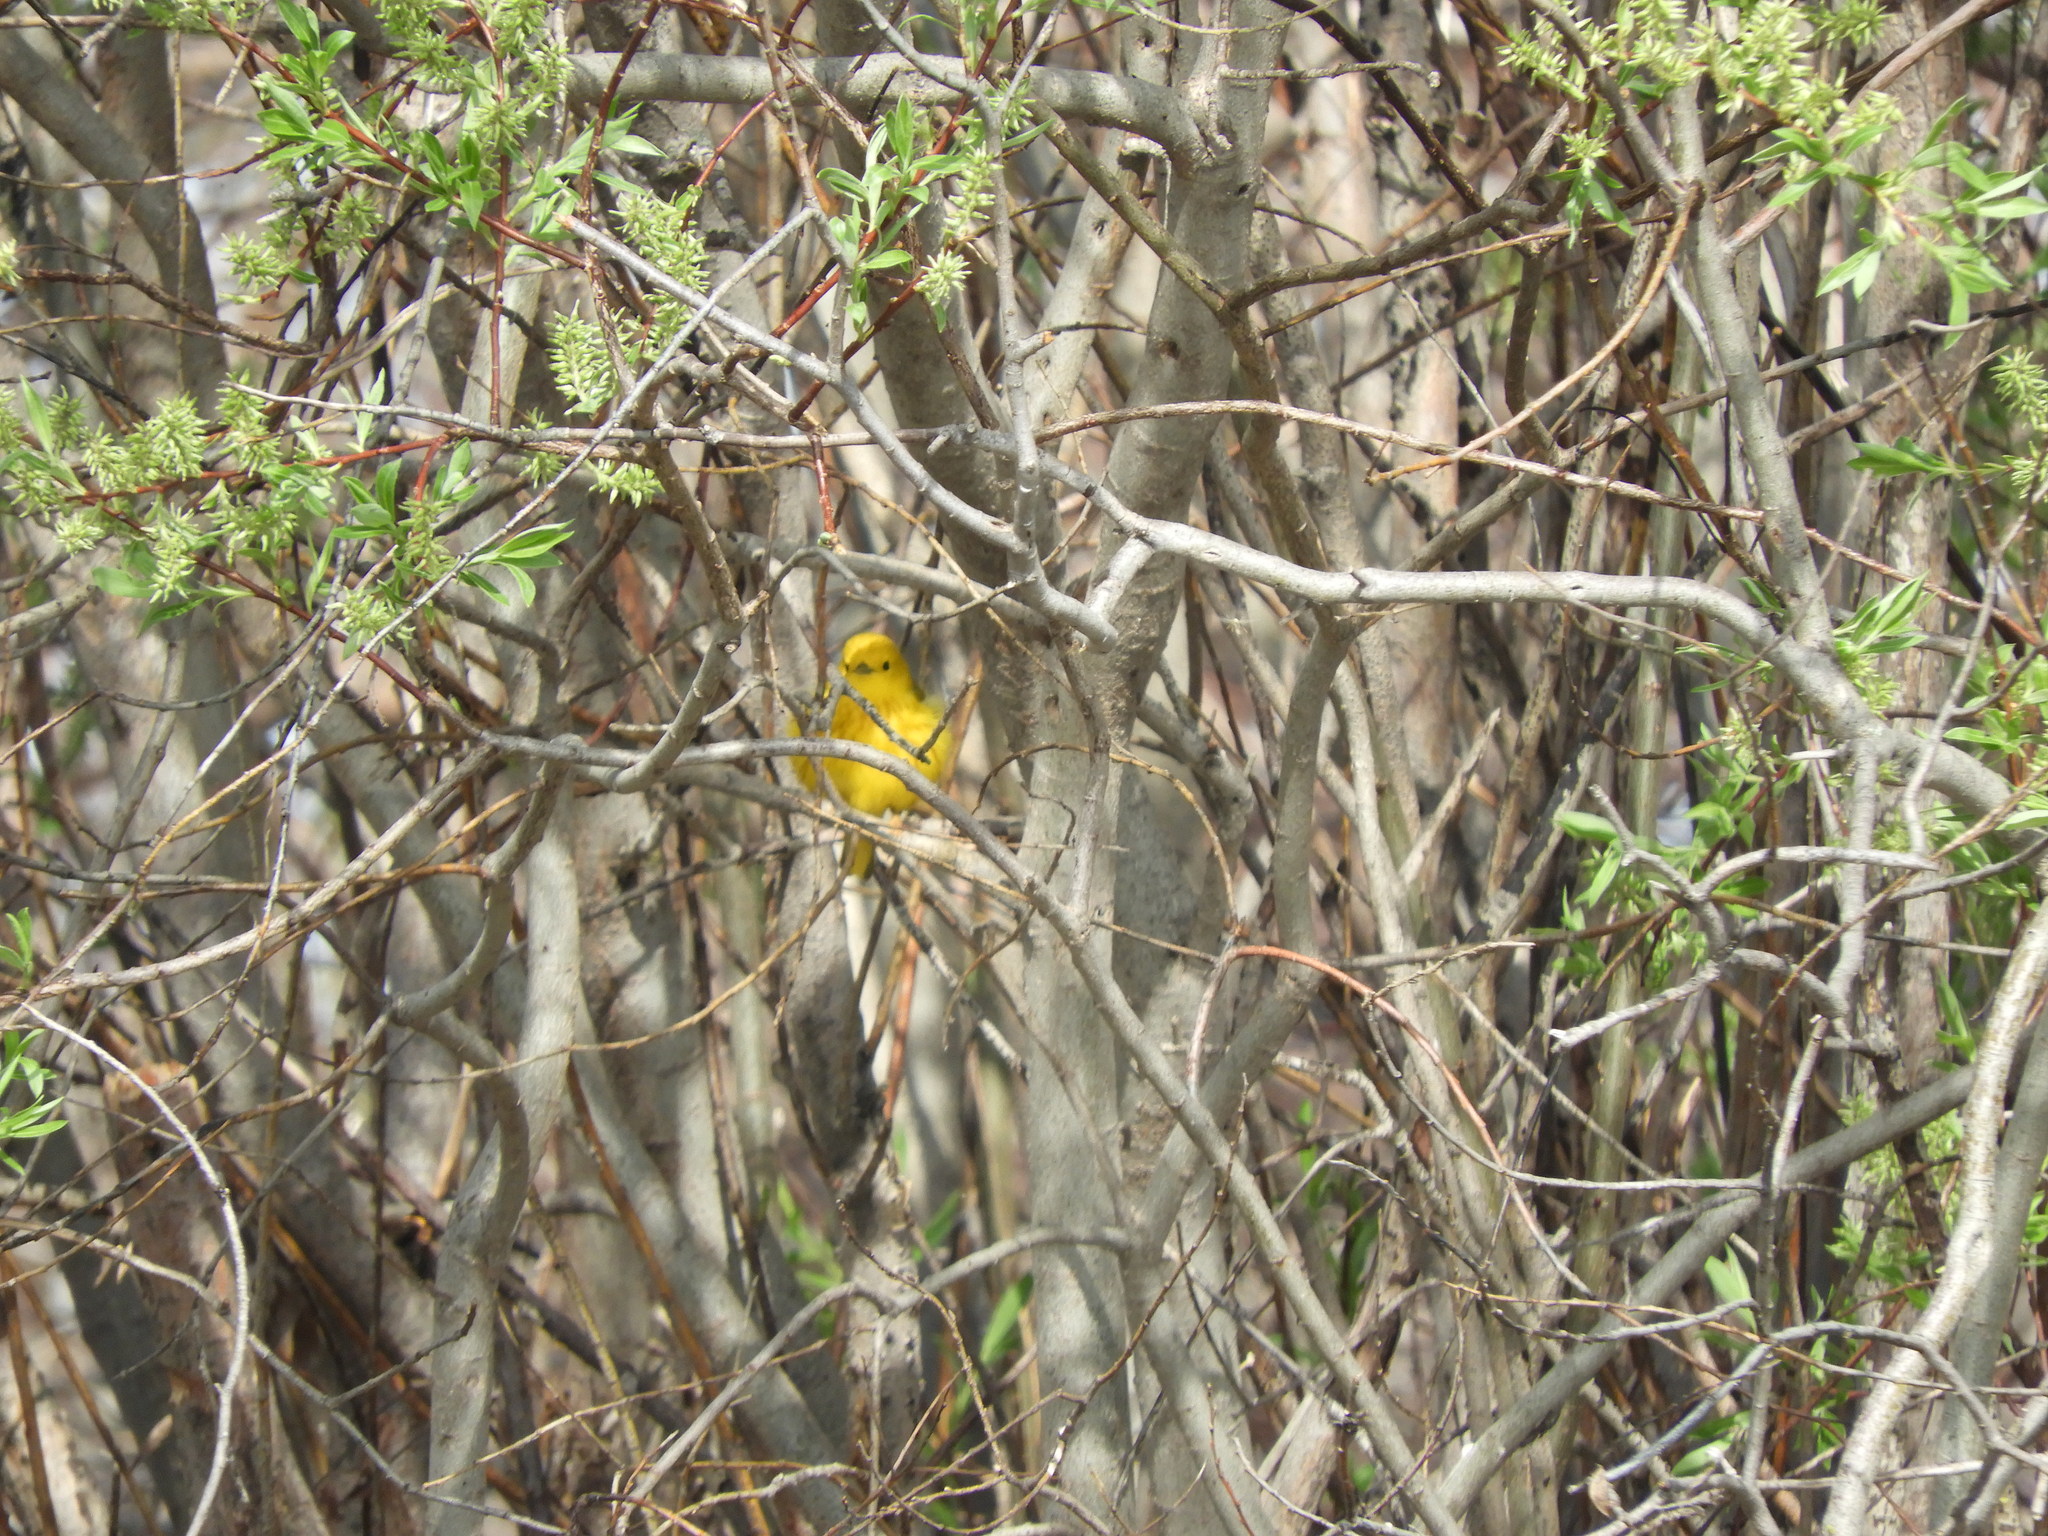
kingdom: Animalia
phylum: Chordata
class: Aves
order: Passeriformes
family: Parulidae
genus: Setophaga
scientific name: Setophaga petechia
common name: Yellow warbler
